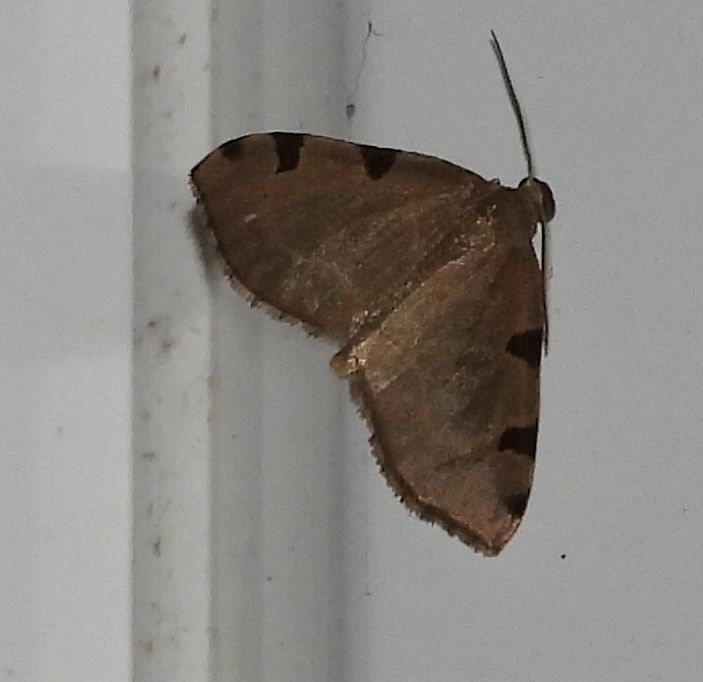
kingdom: Animalia
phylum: Arthropoda
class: Insecta
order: Lepidoptera
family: Geometridae
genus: Heterophleps
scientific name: Heterophleps triguttaria
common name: Three-spotted fillip
